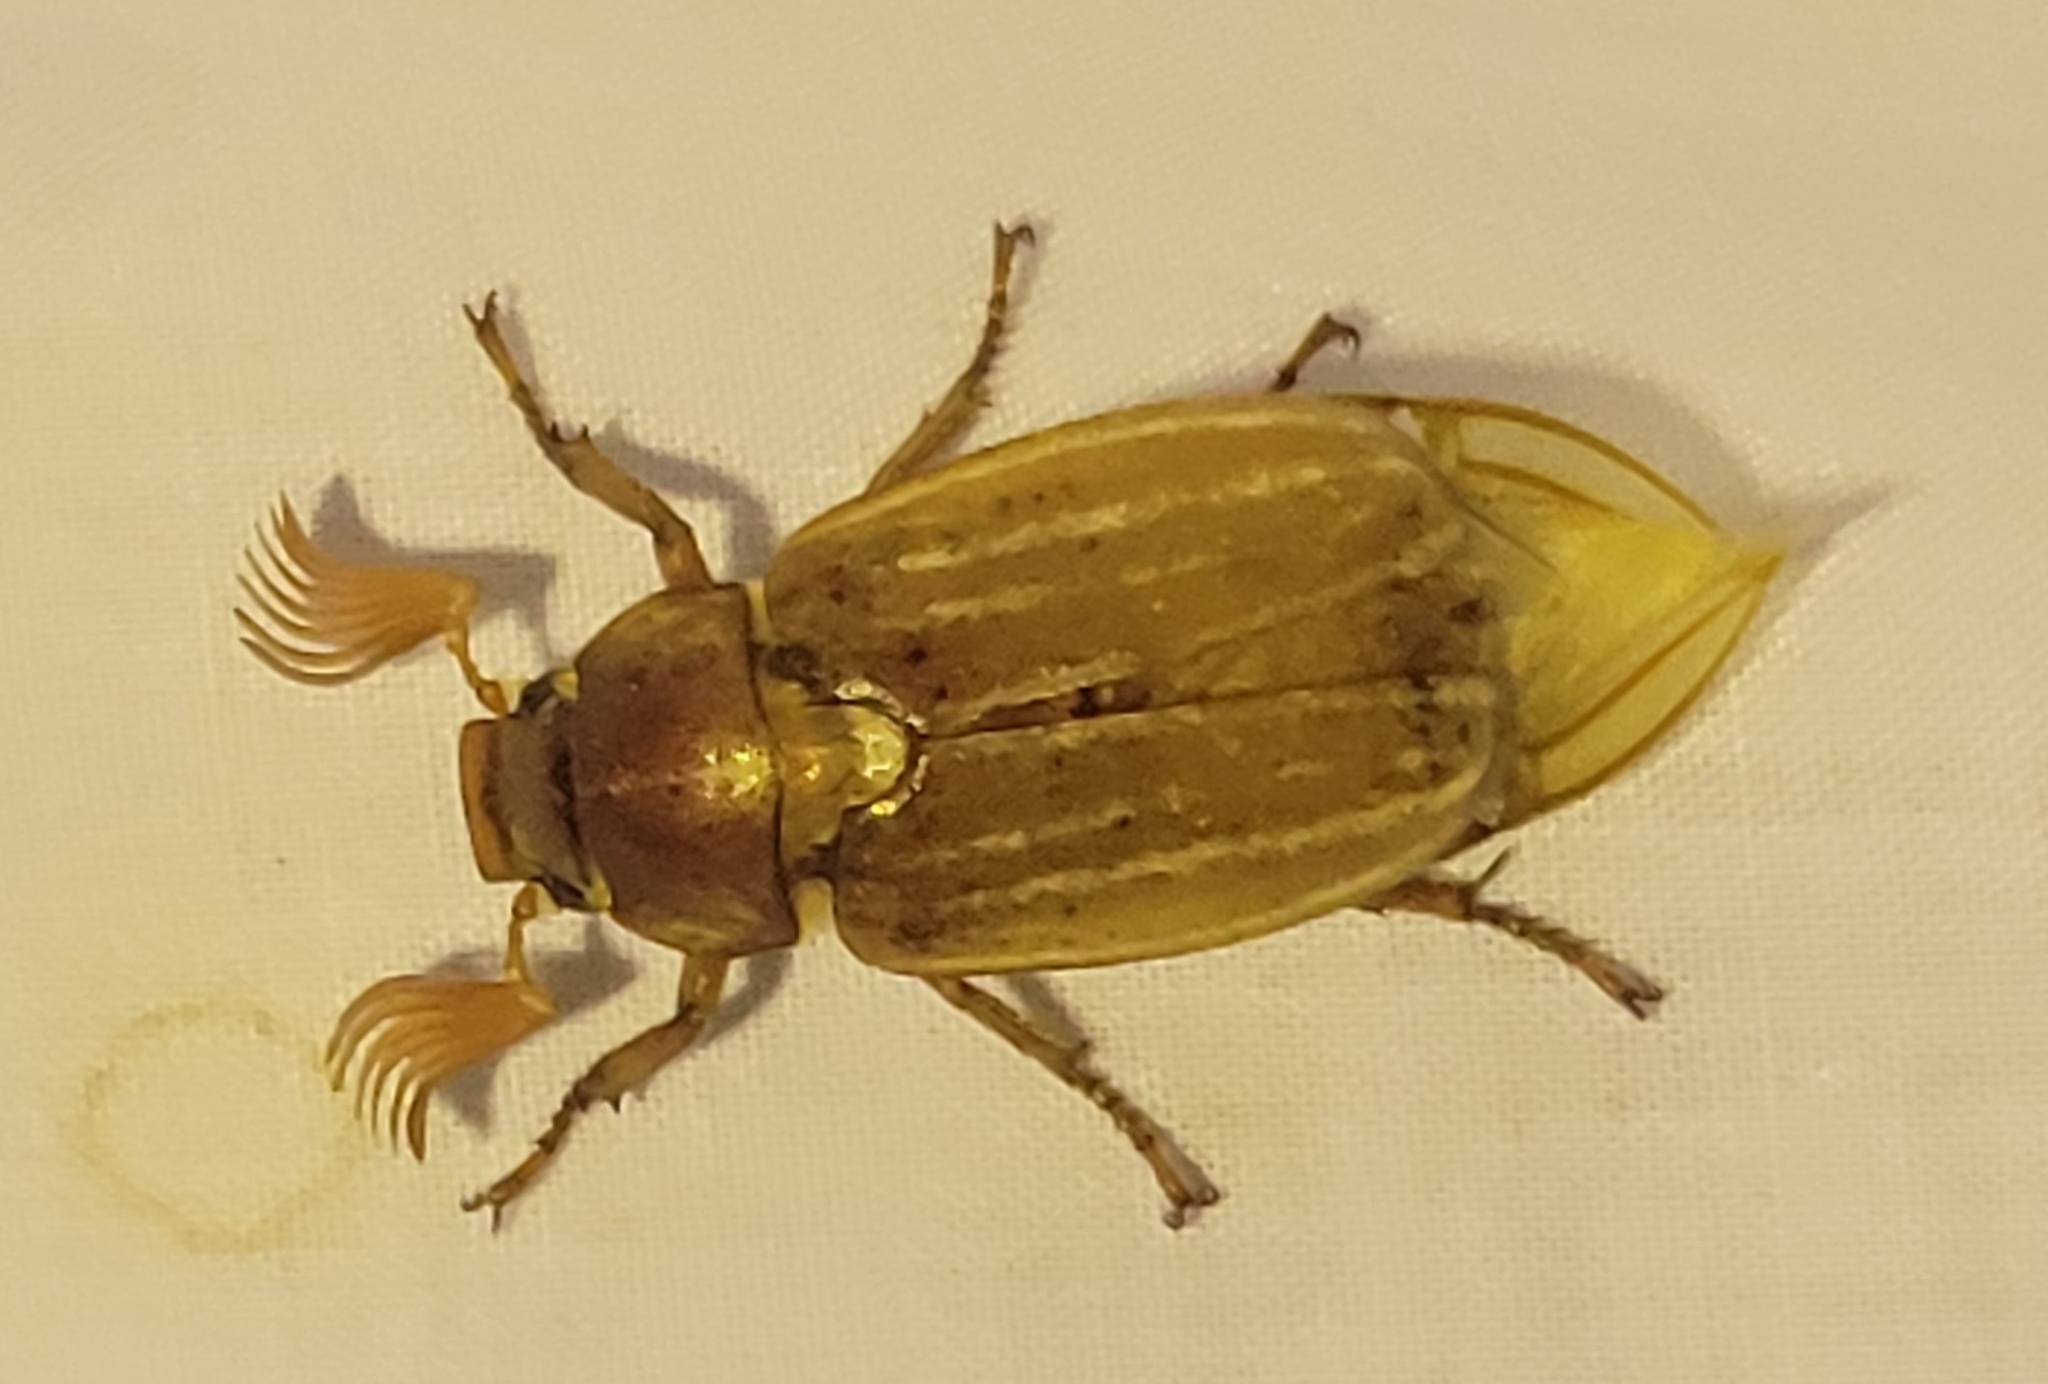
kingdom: Animalia
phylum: Arthropoda
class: Insecta
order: Coleoptera
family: Scarabaeidae
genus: Polyphylla
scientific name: Polyphylla occidentalis
